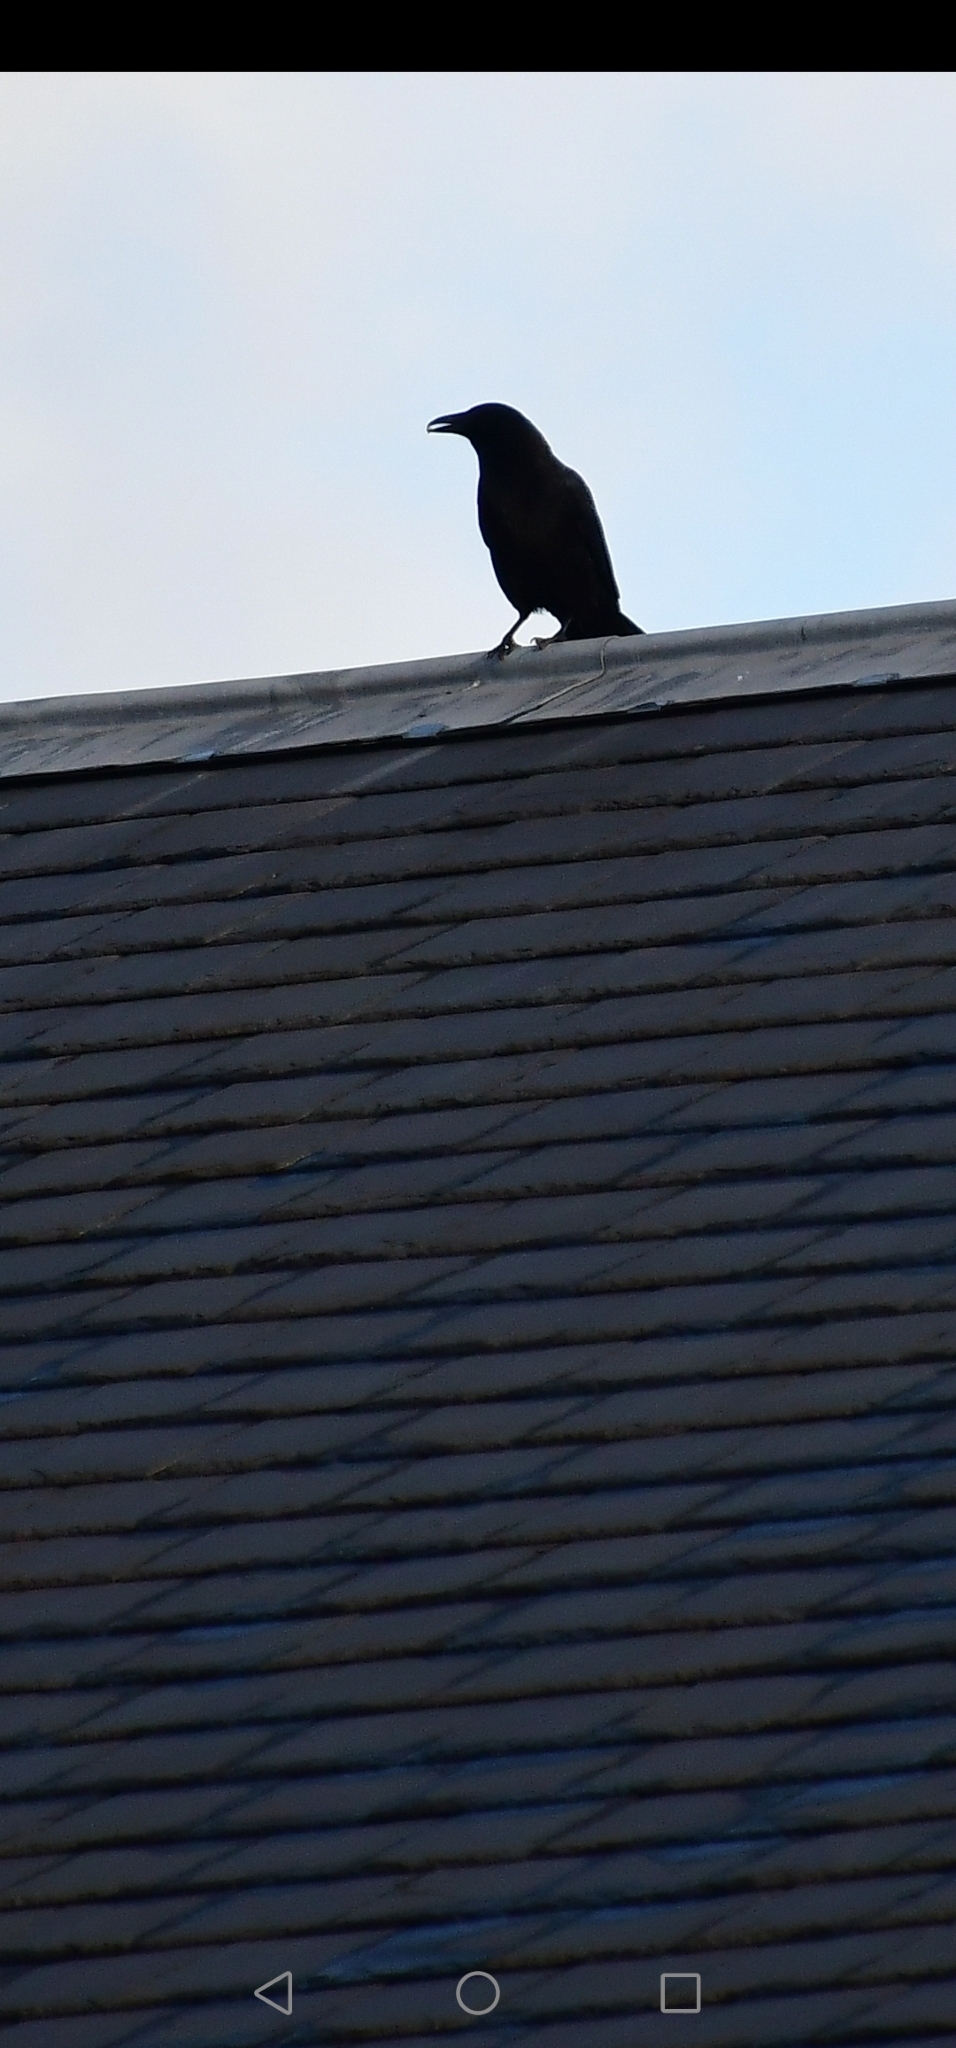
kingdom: Animalia
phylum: Chordata
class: Aves
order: Passeriformes
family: Corvidae
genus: Corvus
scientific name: Corvus corone
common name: Carrion crow
